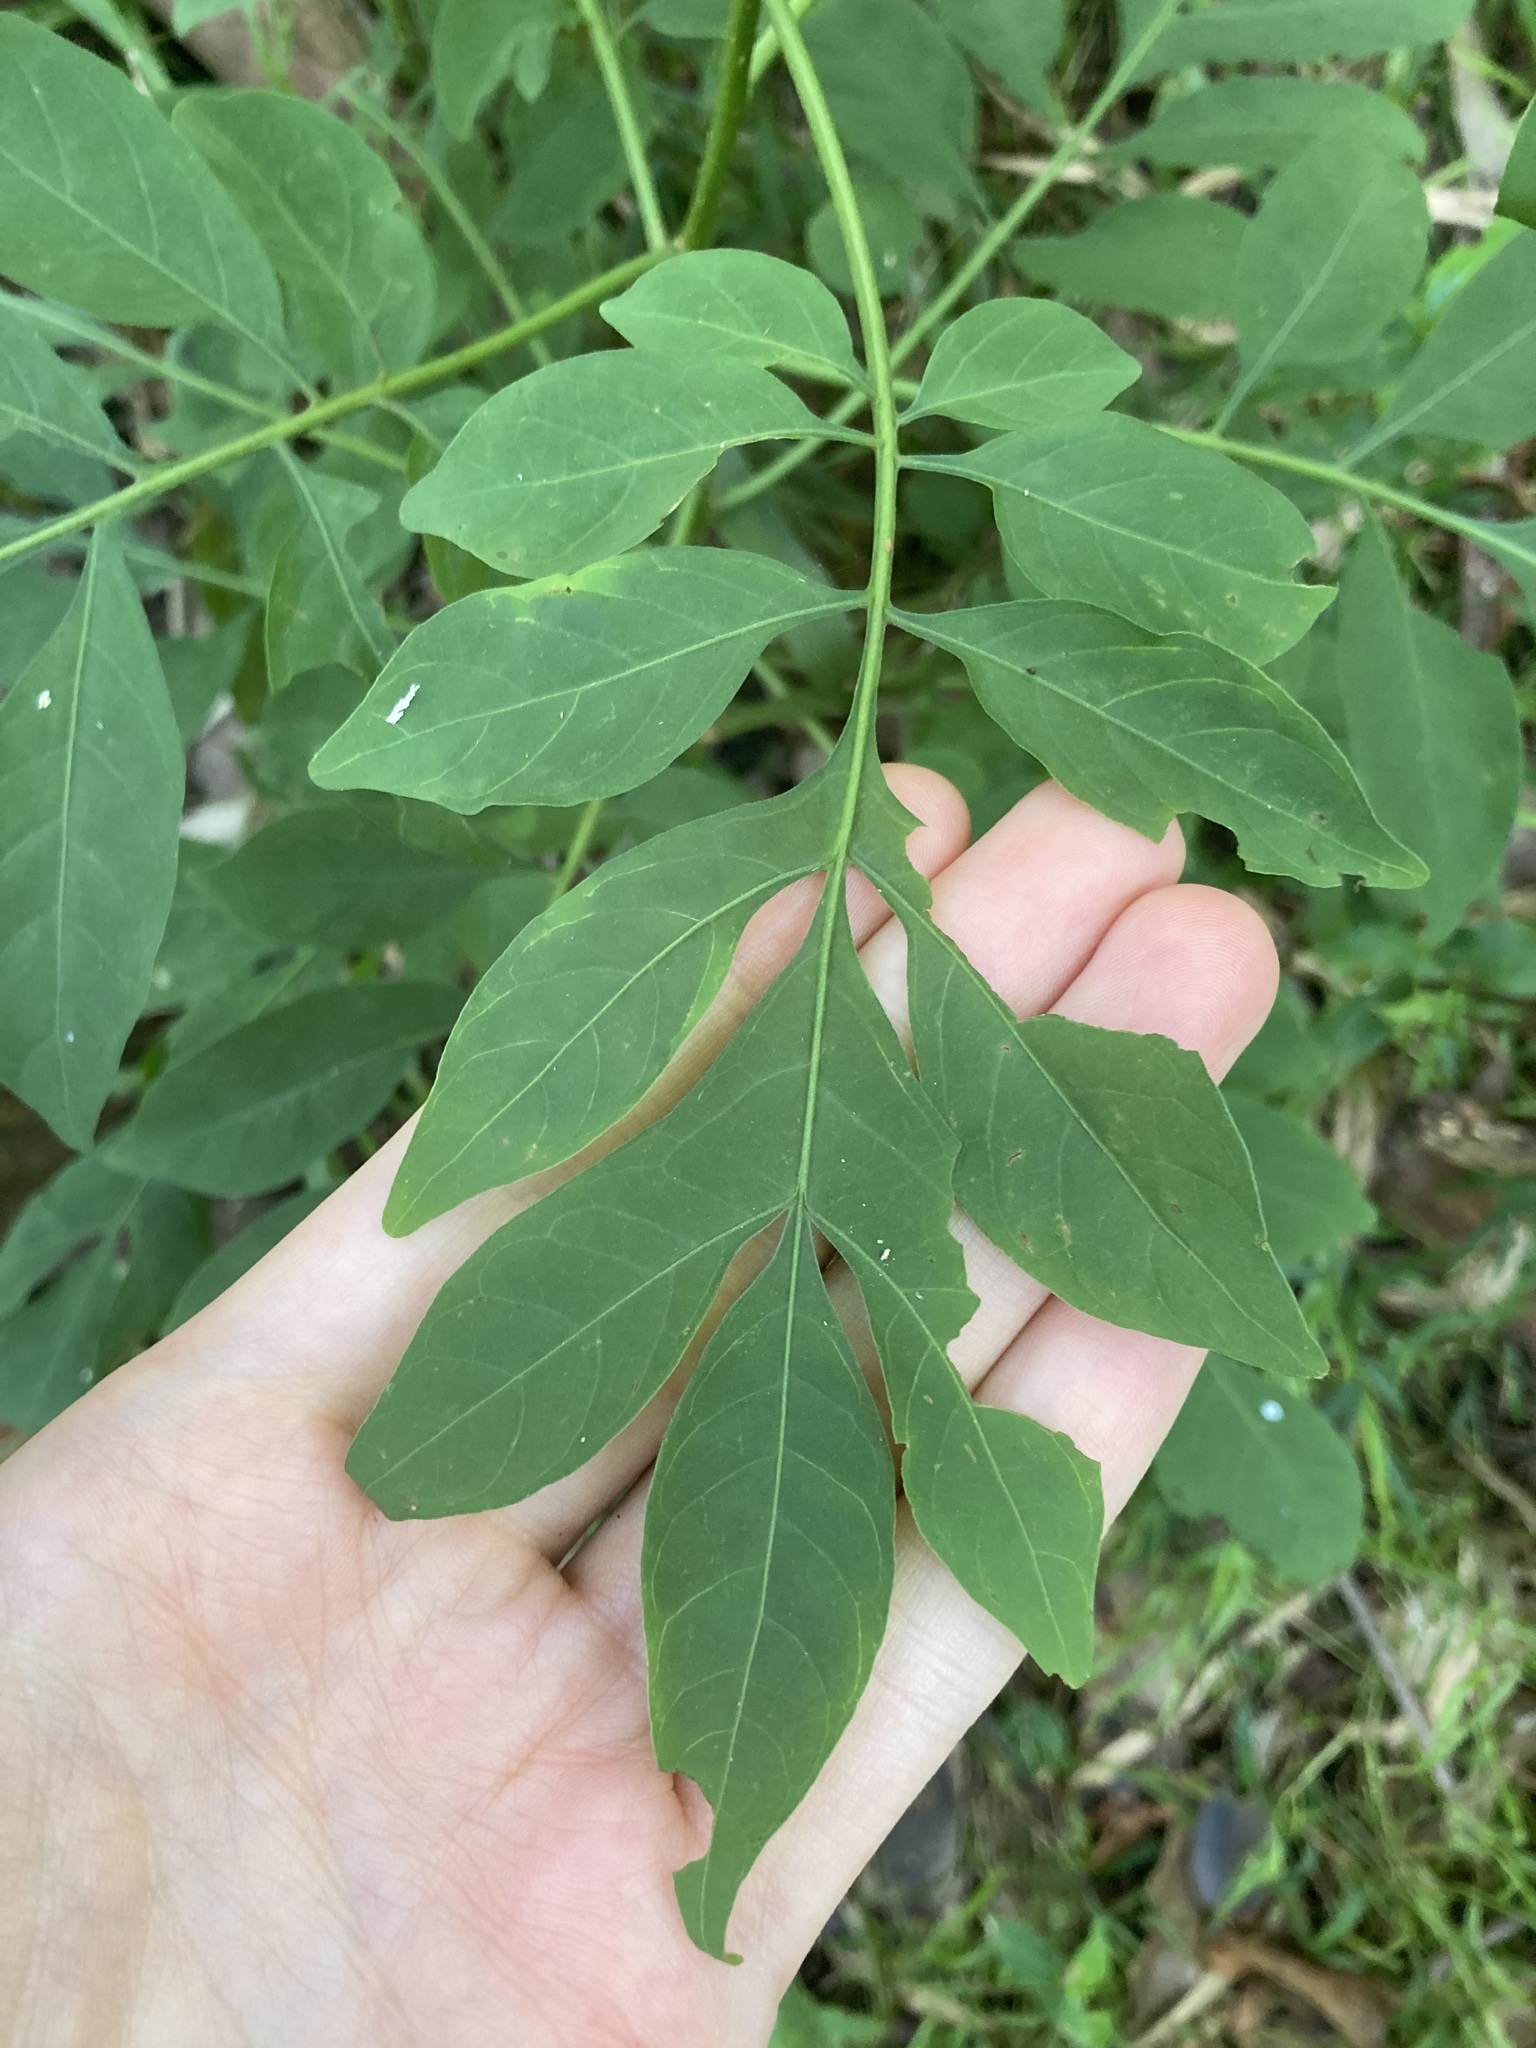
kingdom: Plantae
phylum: Tracheophyta
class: Magnoliopsida
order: Solanales
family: Solanaceae
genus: Solanum
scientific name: Solanum seaforthianum
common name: Brazilian nightshade
